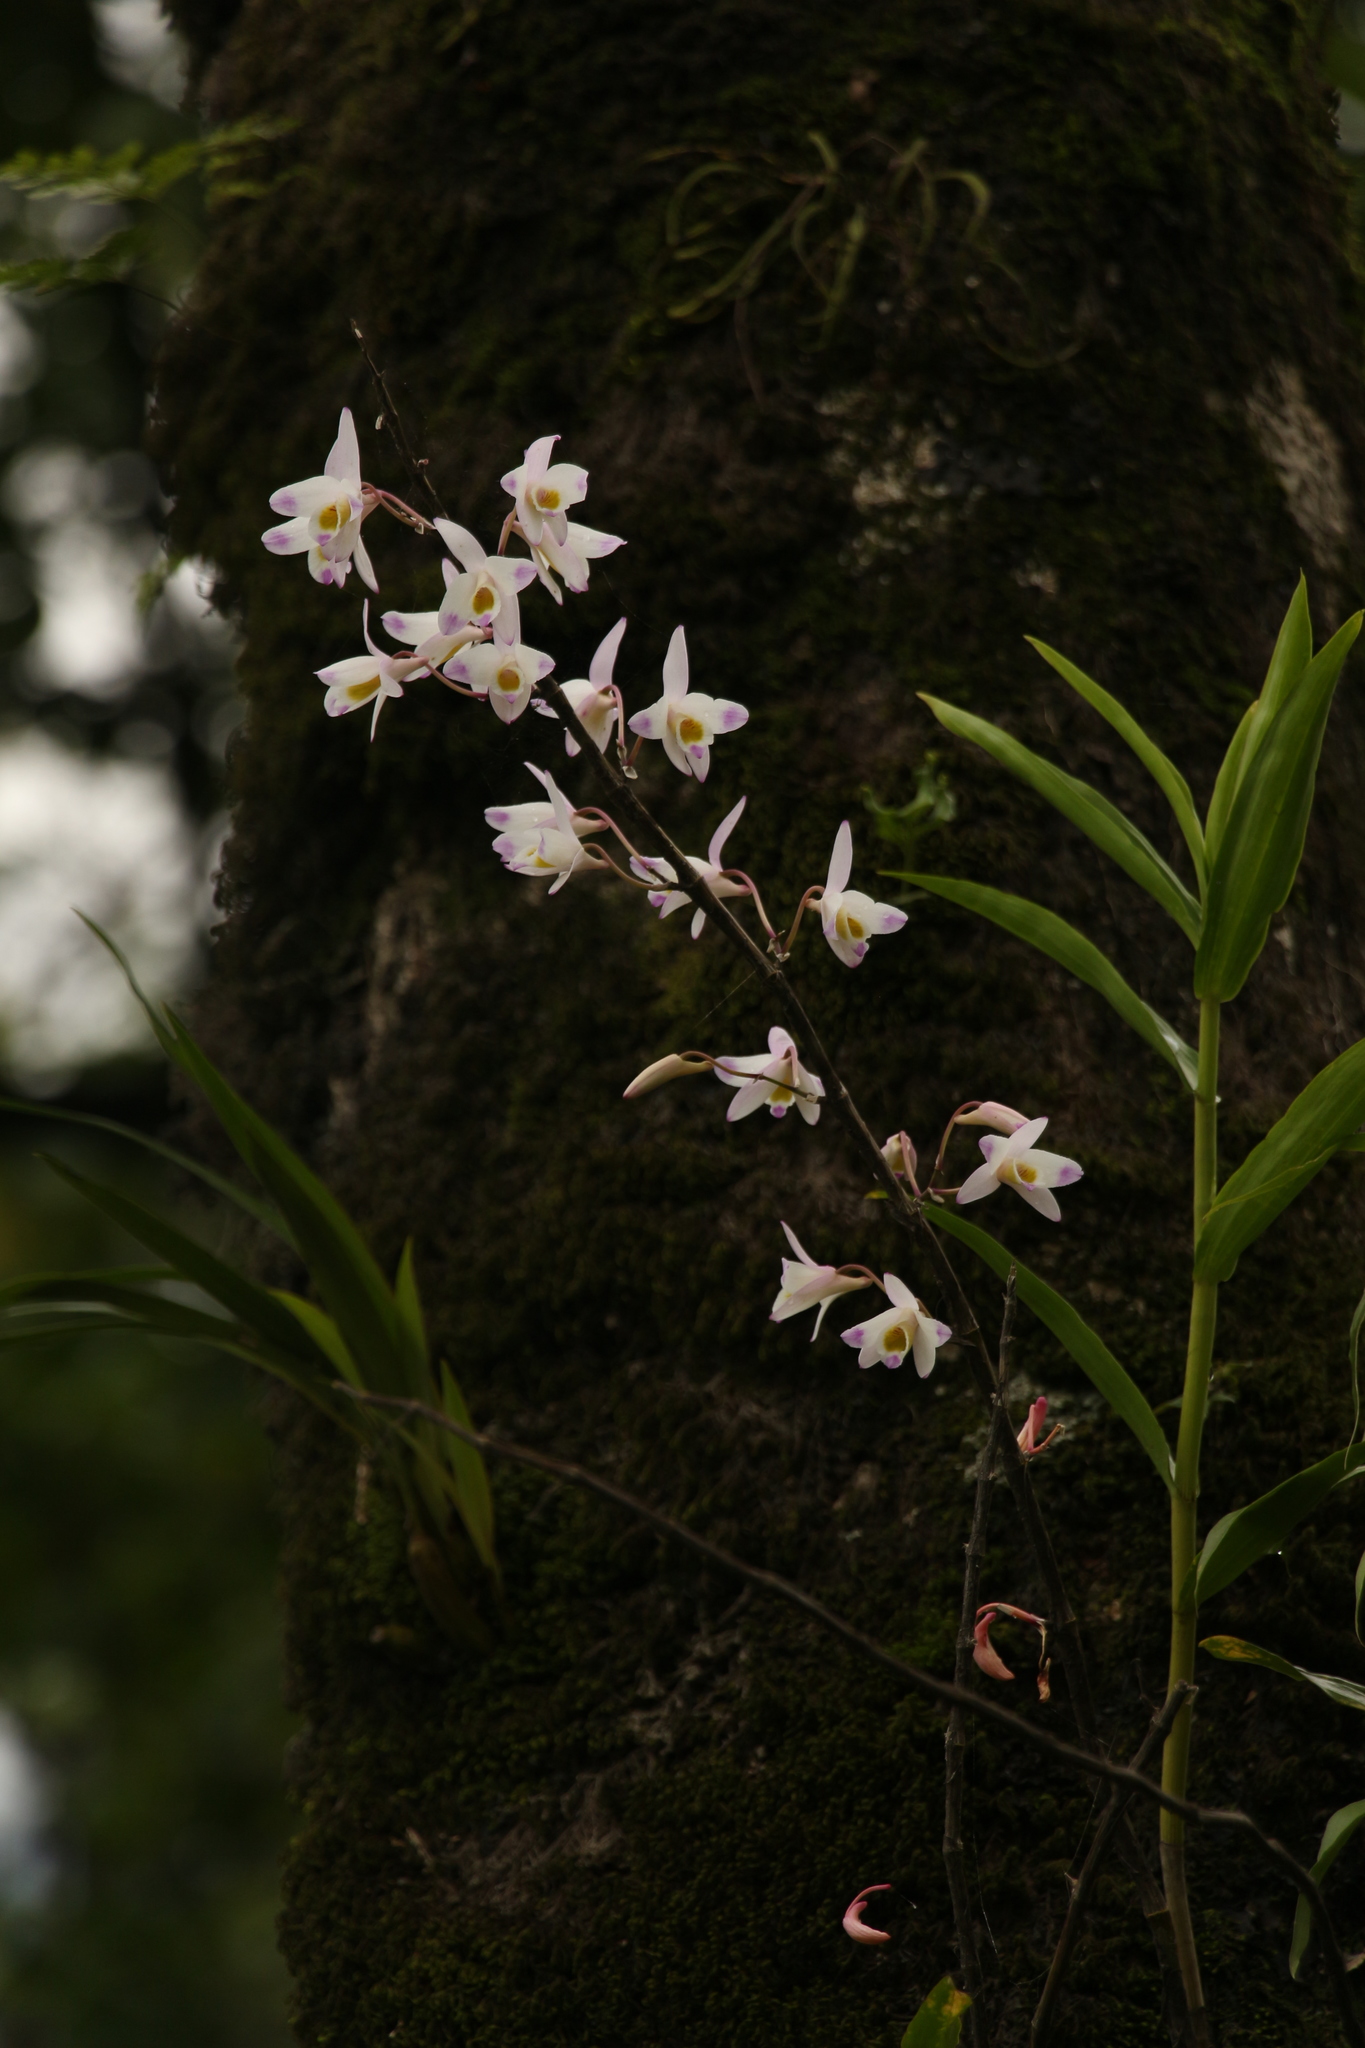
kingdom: Plantae
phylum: Tracheophyta
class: Liliopsida
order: Asparagales
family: Orchidaceae
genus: Dendrobium
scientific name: Dendrobium amoenum
